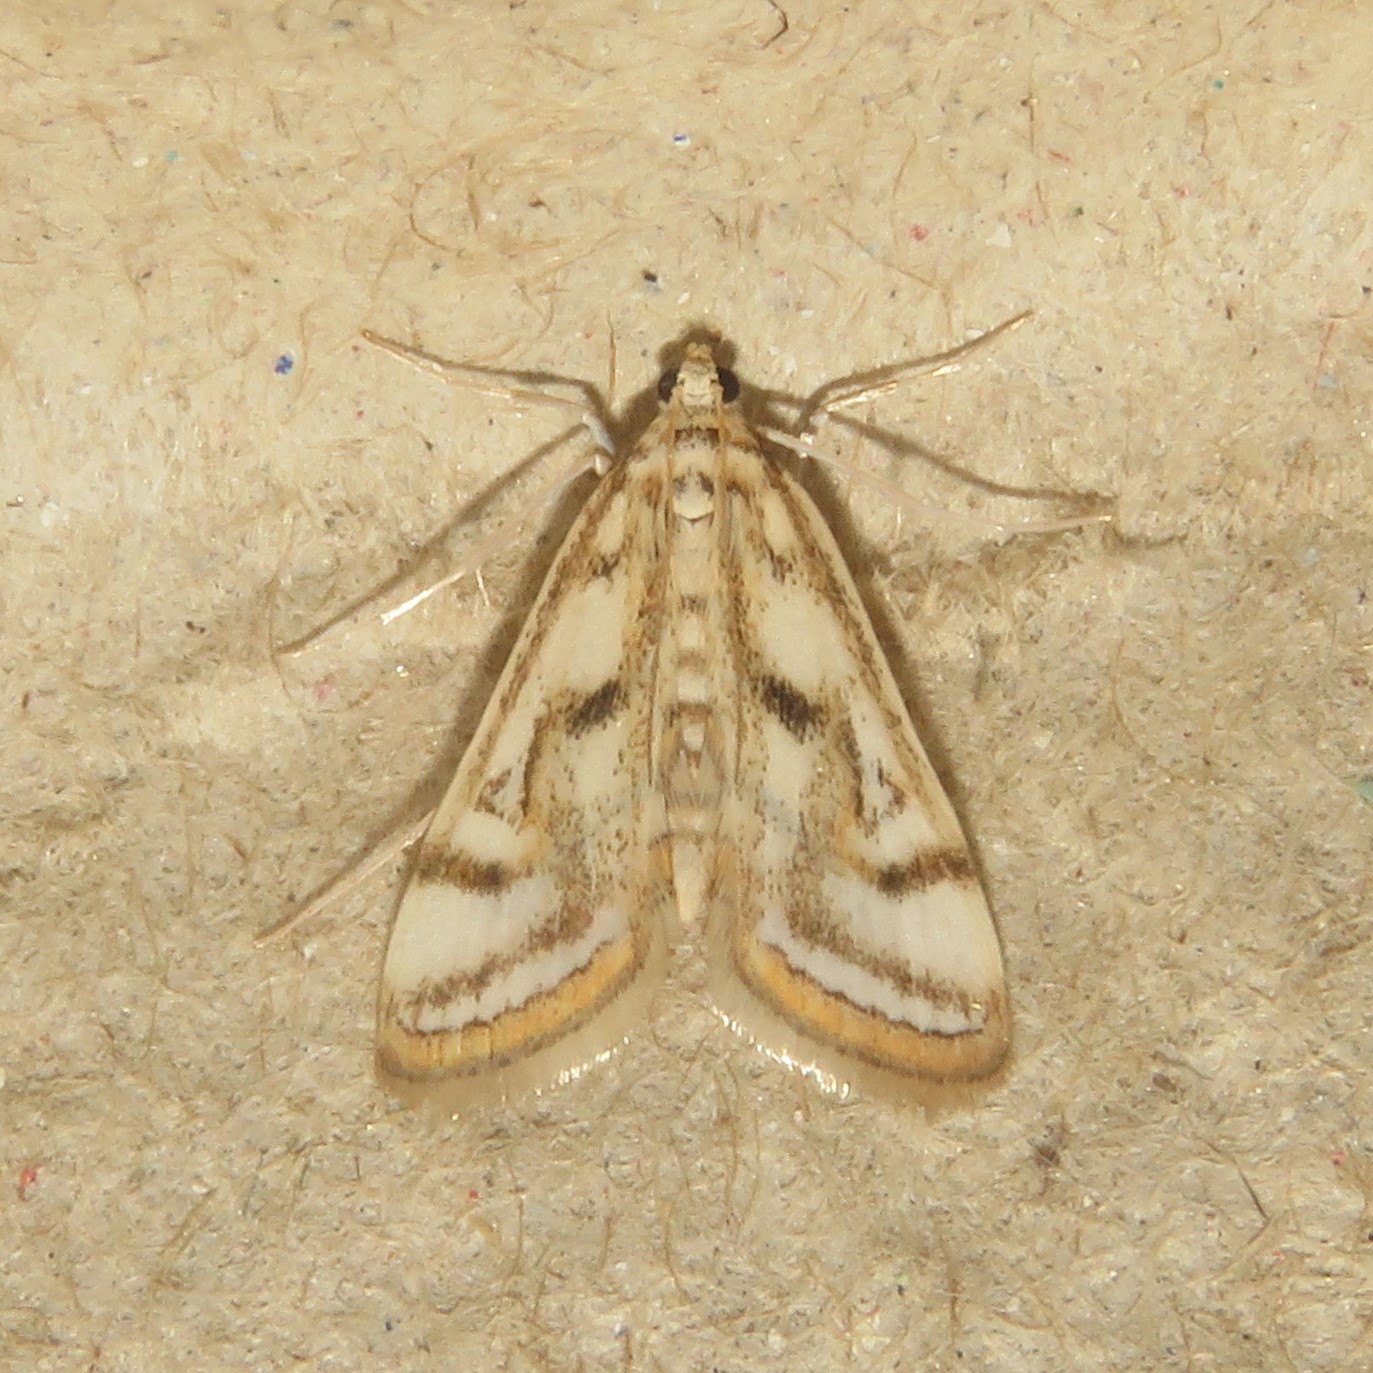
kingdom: Animalia
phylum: Arthropoda
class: Insecta
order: Lepidoptera
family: Crambidae
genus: Parapoynx
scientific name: Parapoynx badiusalis
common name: Chestnut-marked pondweed moth
